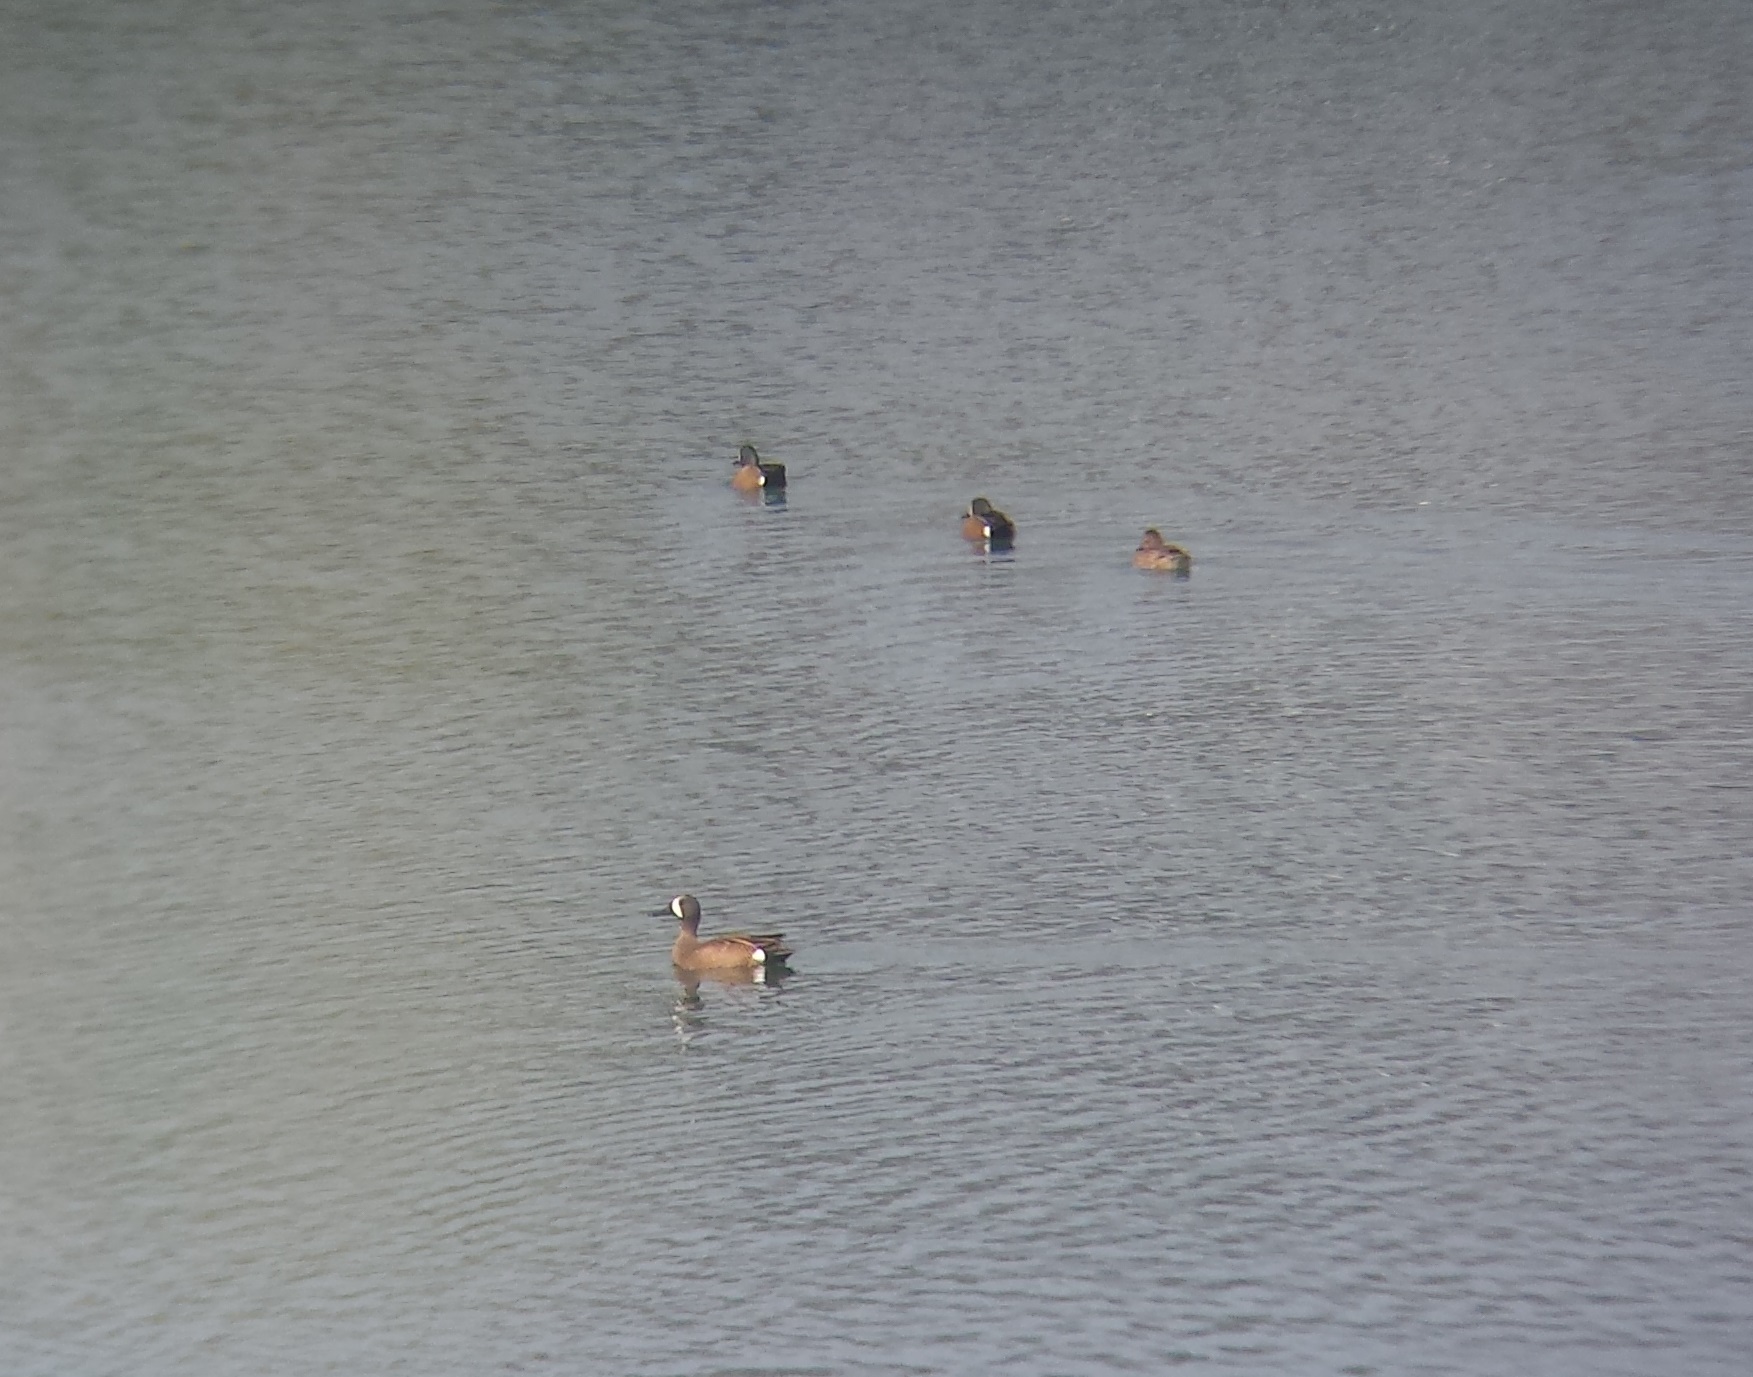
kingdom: Animalia
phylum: Chordata
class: Aves
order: Anseriformes
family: Anatidae
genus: Spatula
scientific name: Spatula discors
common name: Blue-winged teal
